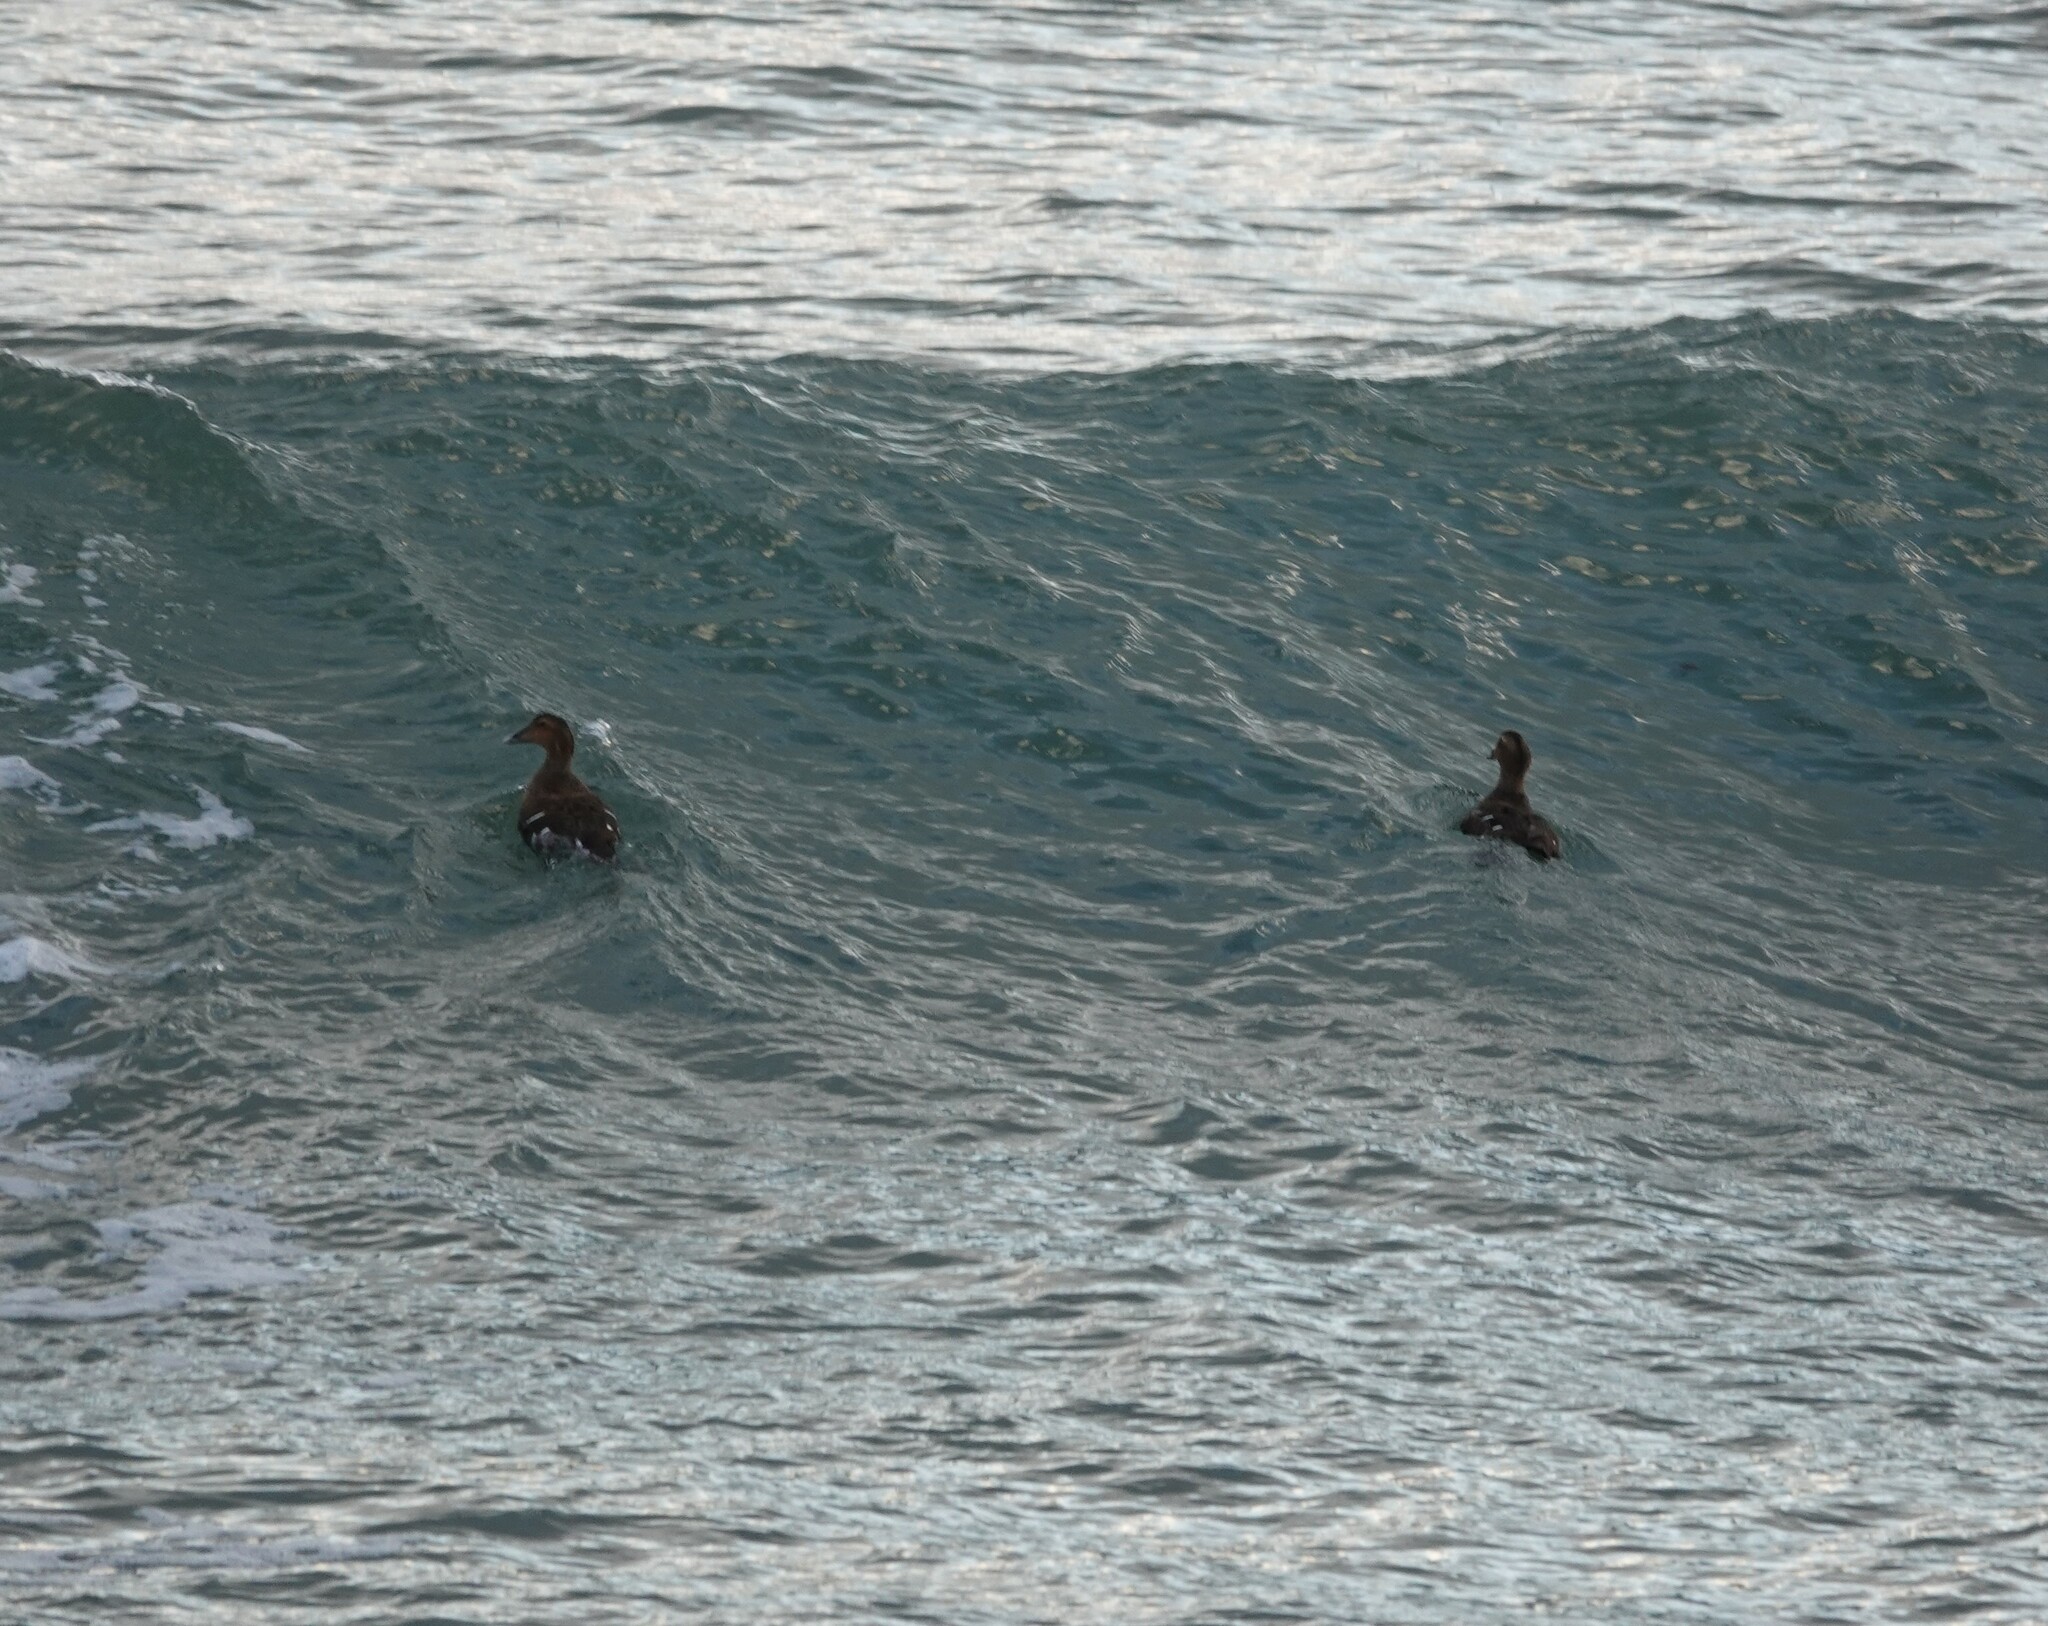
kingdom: Animalia
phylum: Chordata
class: Aves
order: Anseriformes
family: Anatidae
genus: Somateria
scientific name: Somateria mollissima
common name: Common eider
